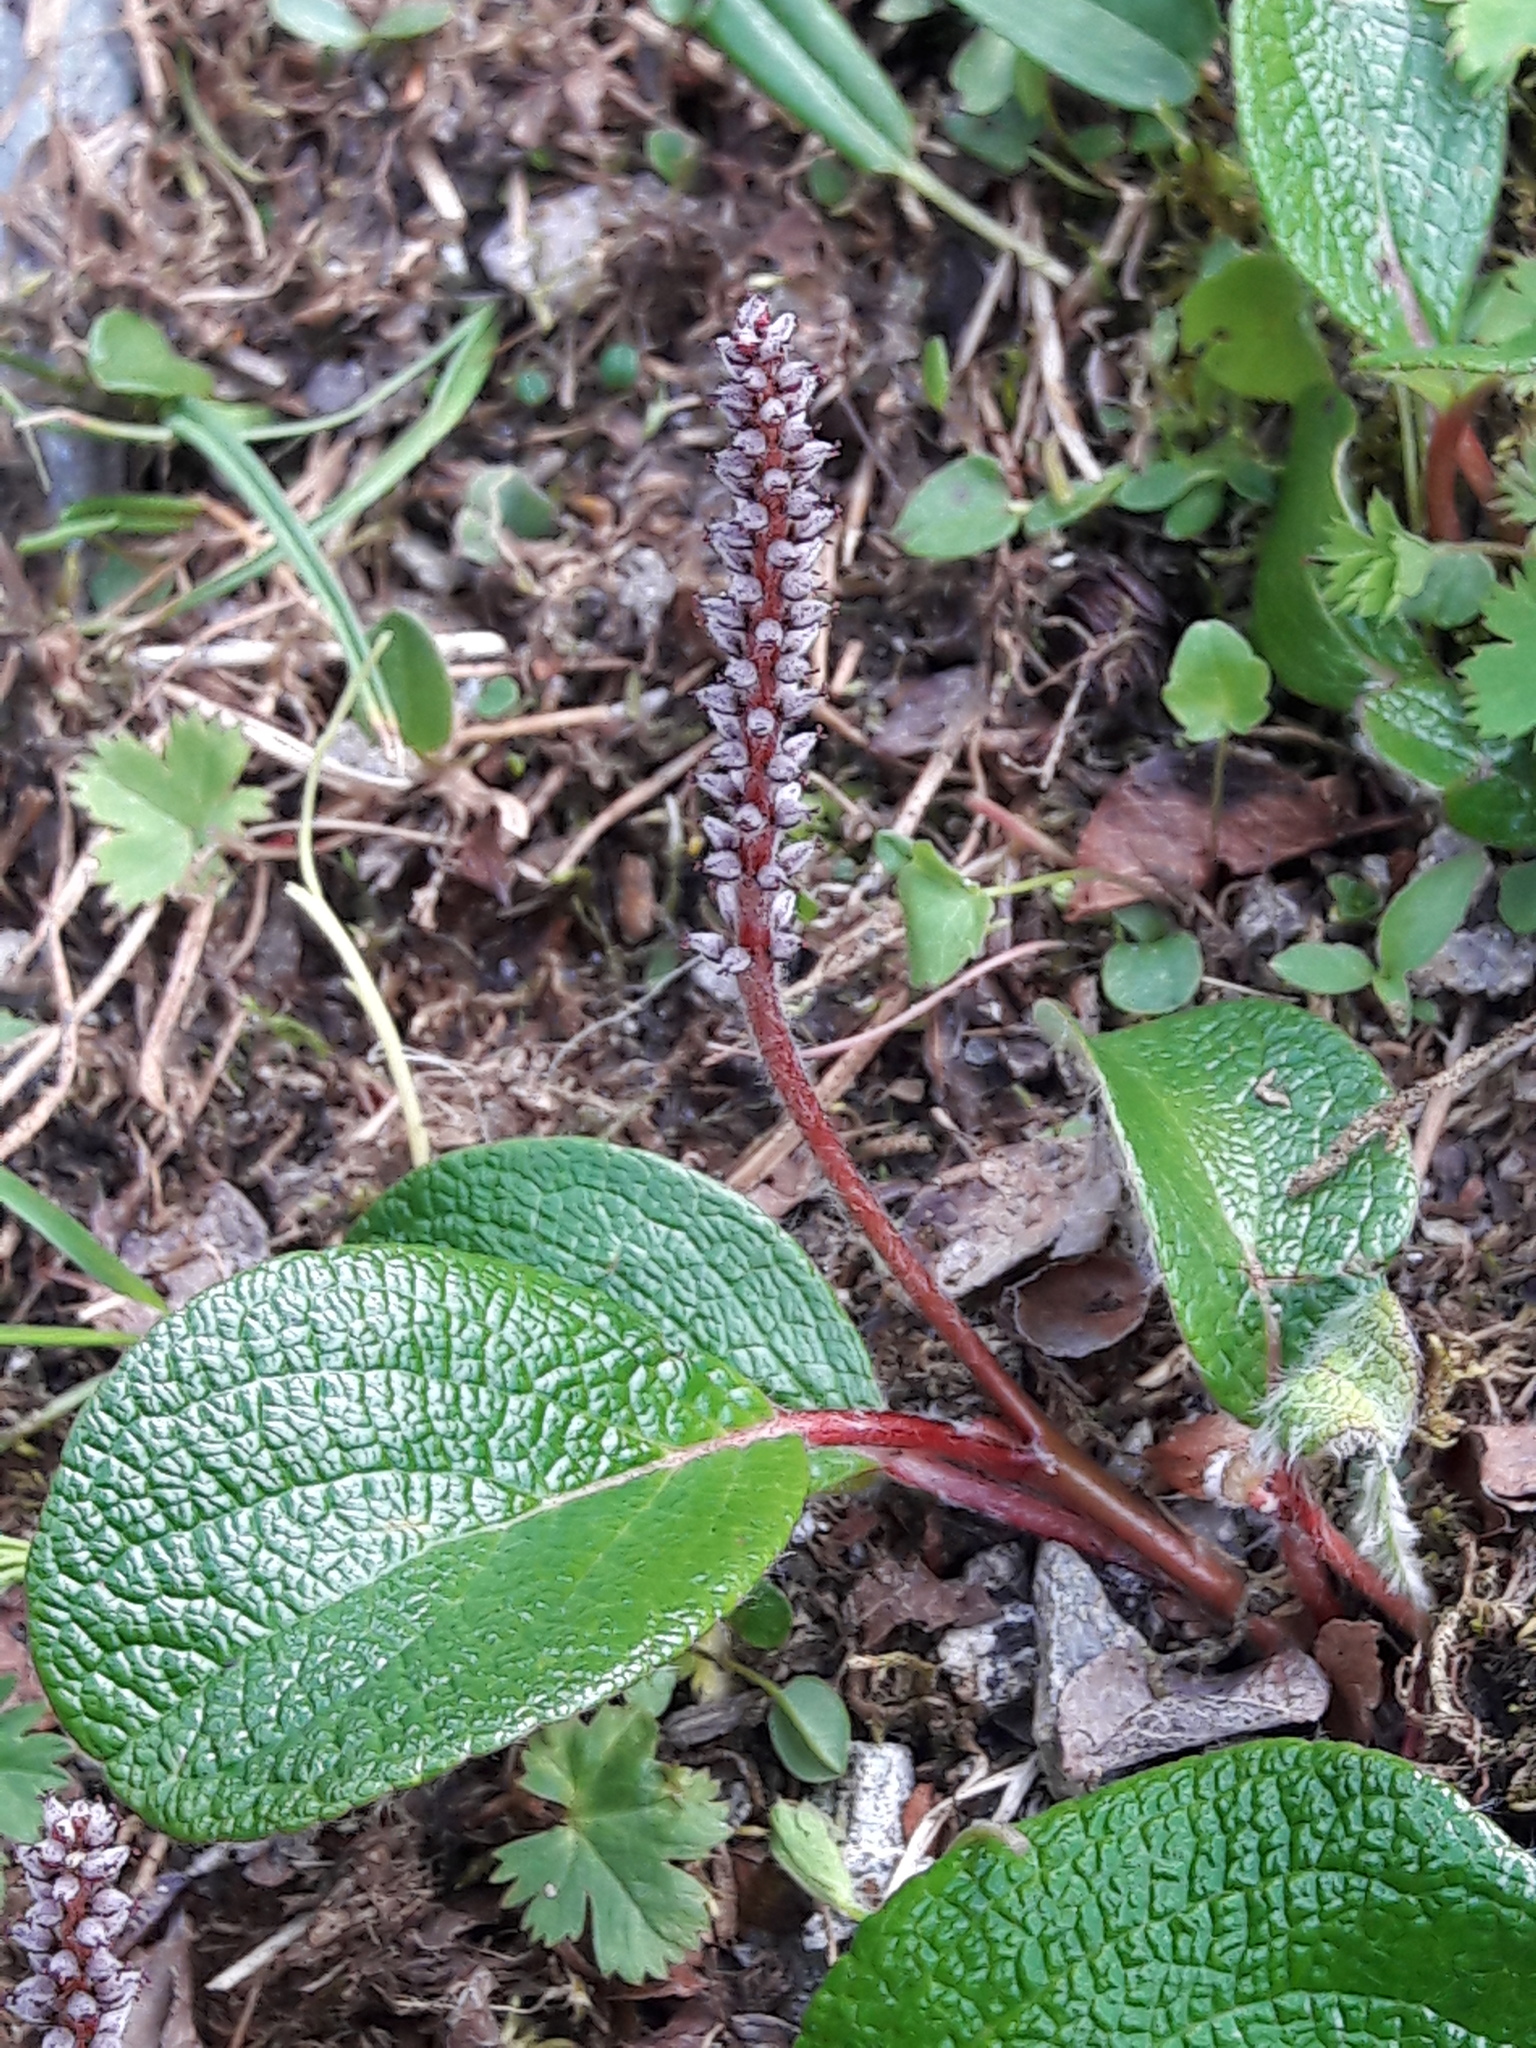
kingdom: Plantae
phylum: Tracheophyta
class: Magnoliopsida
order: Malpighiales
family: Salicaceae
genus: Salix
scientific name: Salix reticulata
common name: Net-leaved willow
